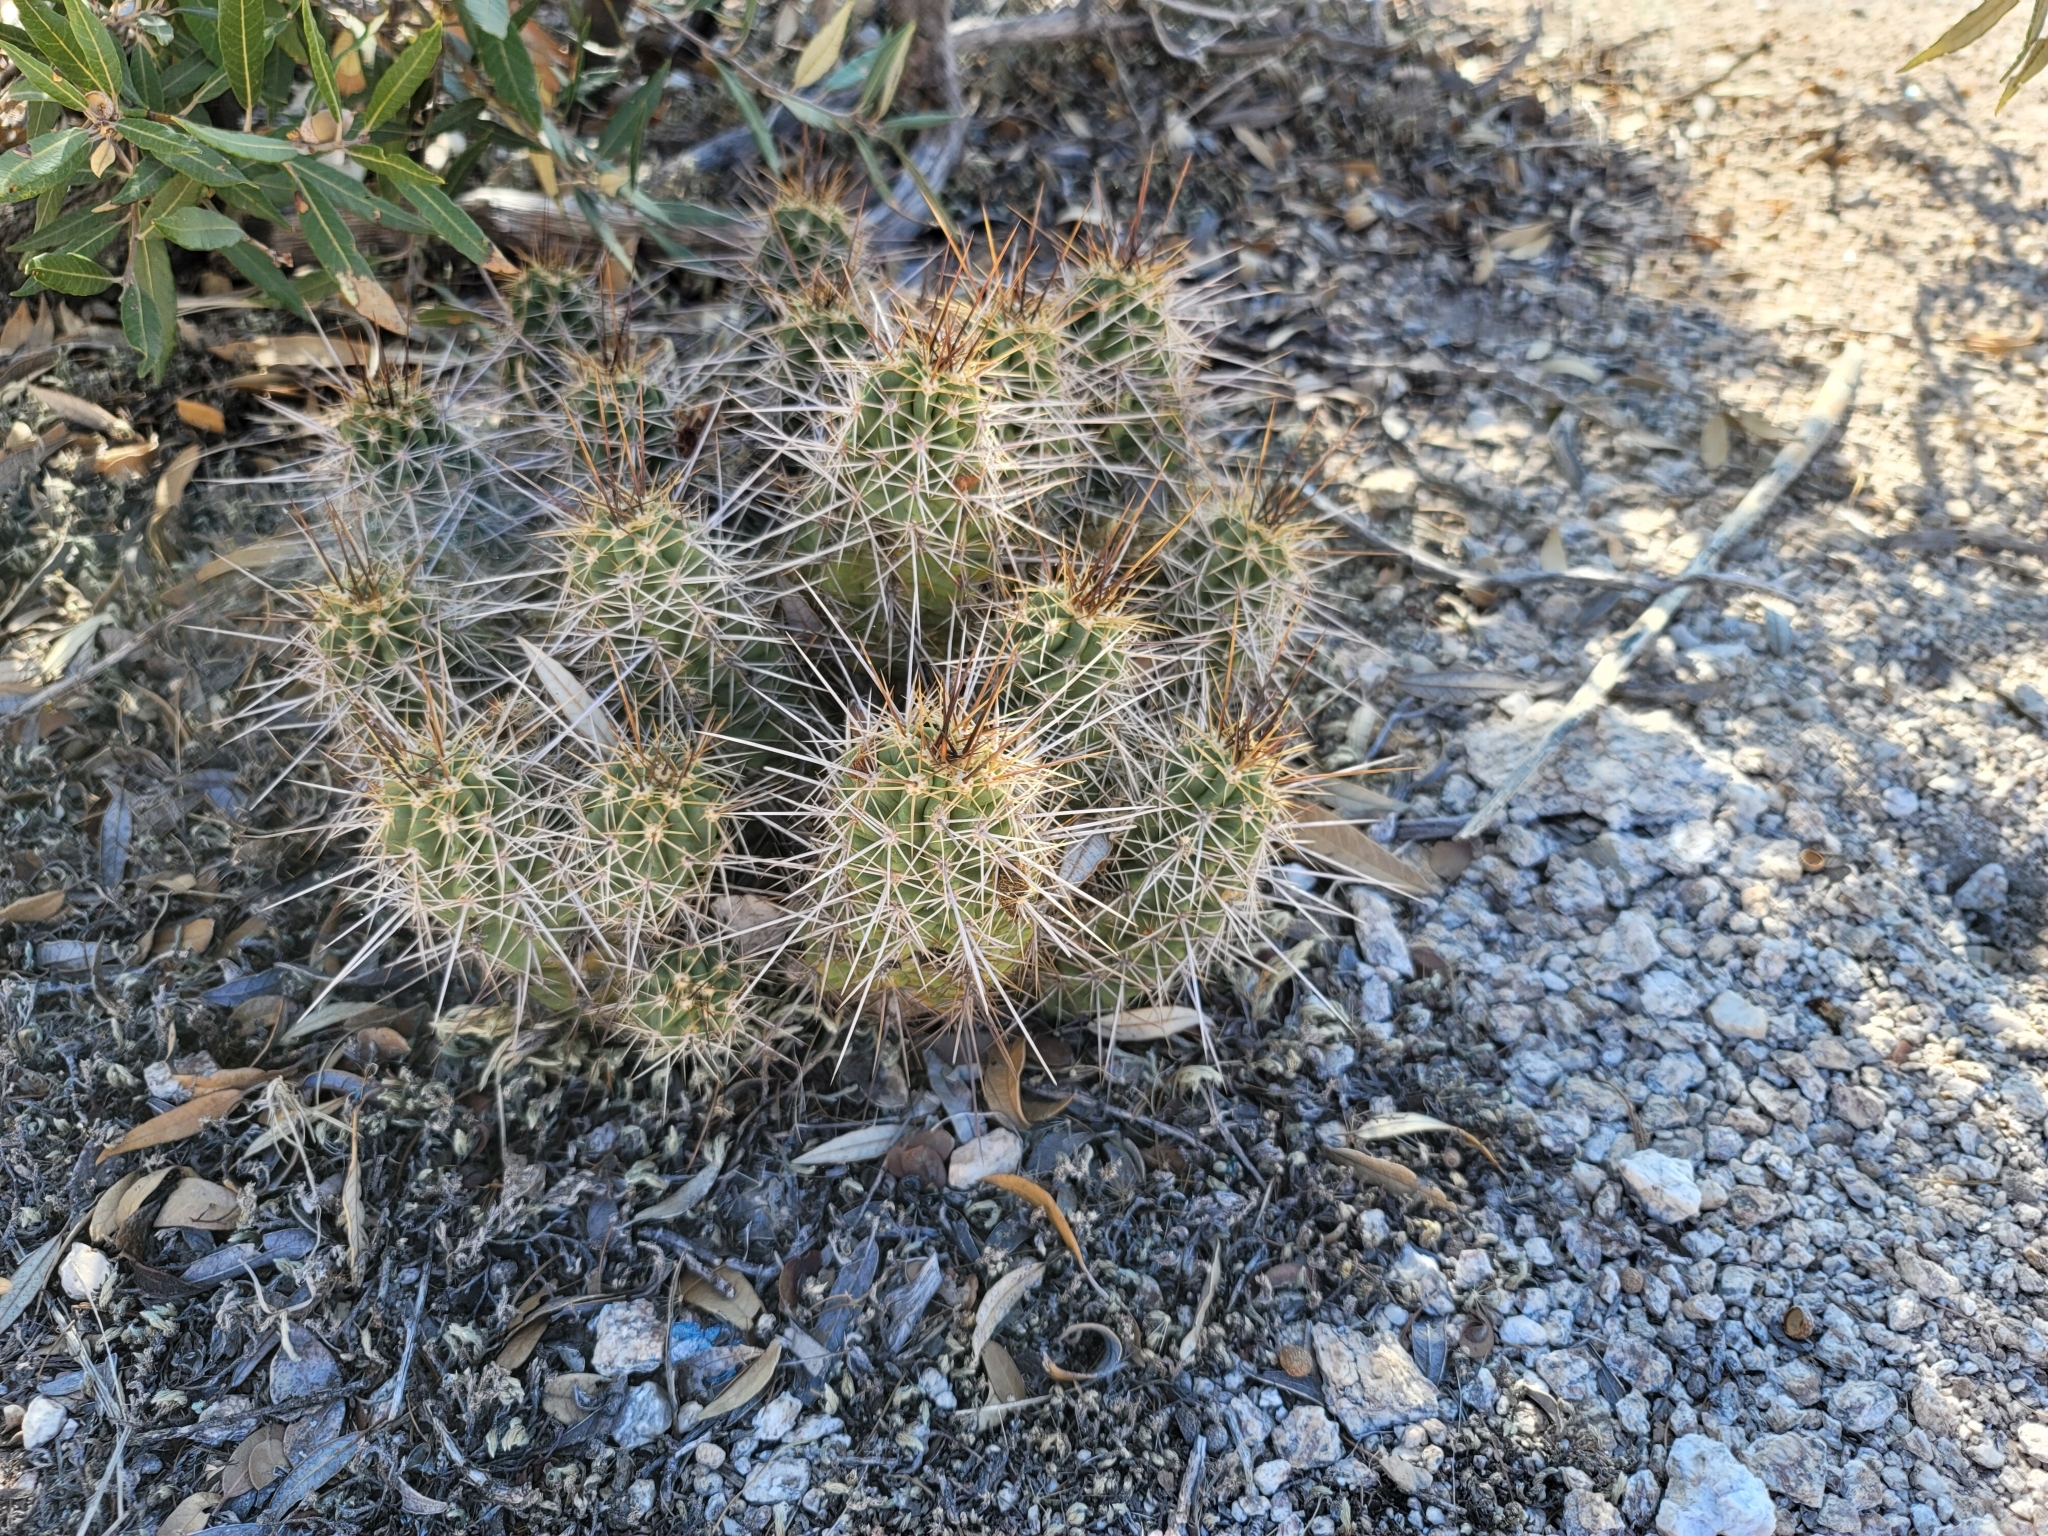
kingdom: Plantae
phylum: Tracheophyta
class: Magnoliopsida
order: Caryophyllales
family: Cactaceae
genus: Echinocereus
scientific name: Echinocereus coccineus
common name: Scarlet hedgehog cactus
